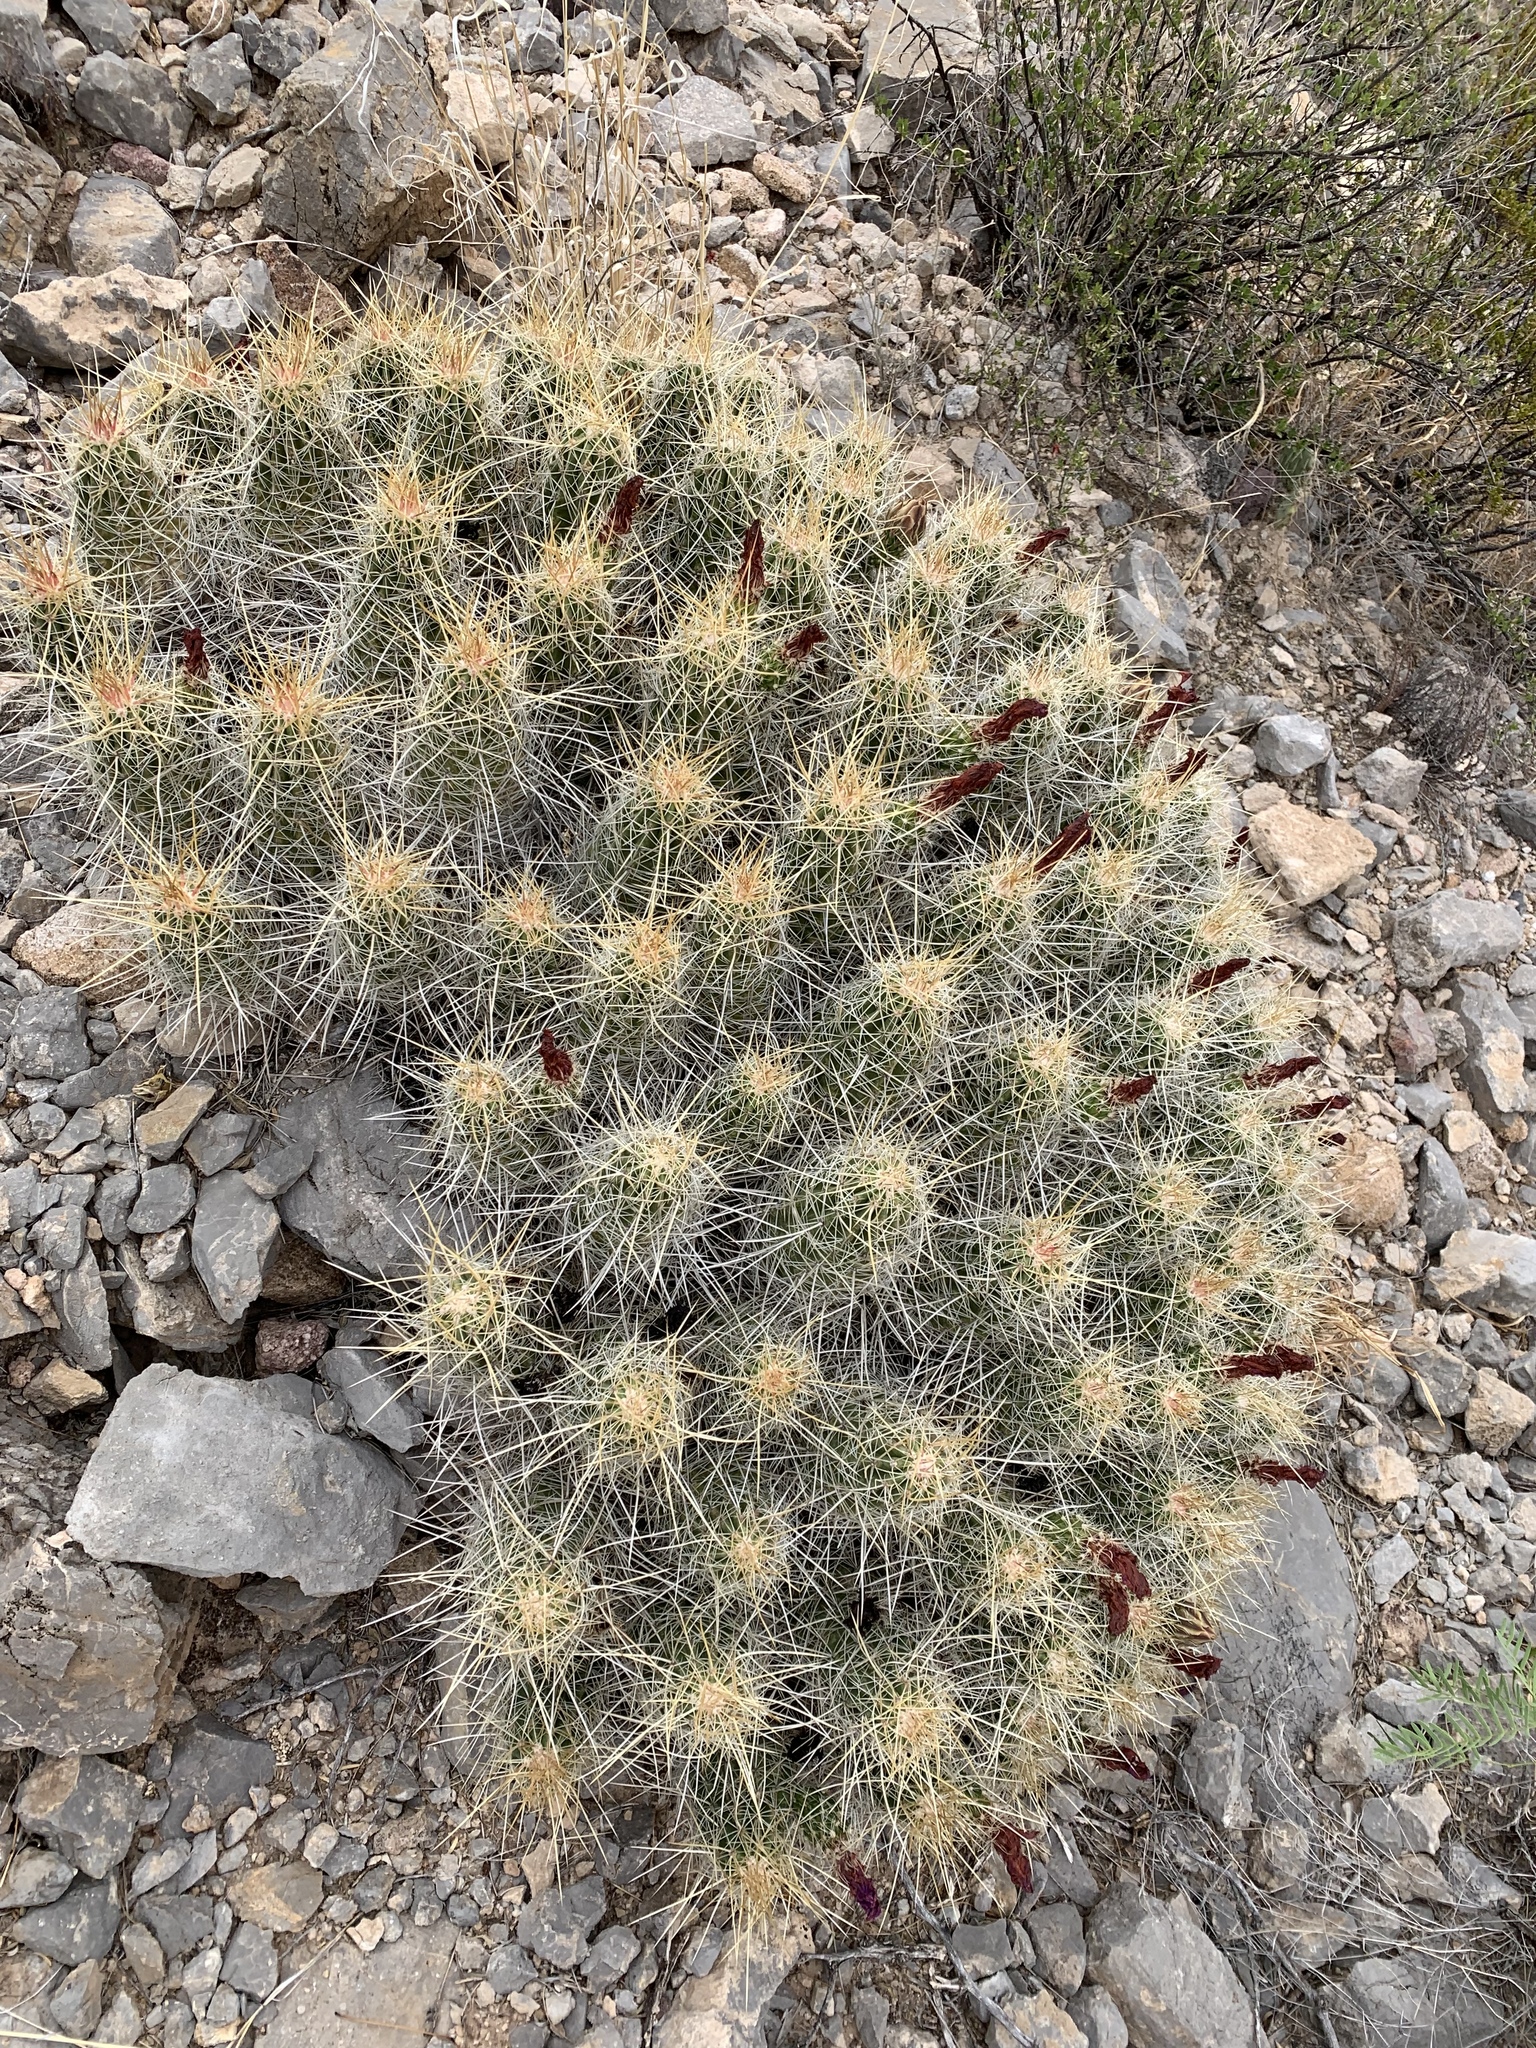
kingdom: Plantae
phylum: Tracheophyta
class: Magnoliopsida
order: Caryophyllales
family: Cactaceae
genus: Echinocereus
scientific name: Echinocereus stramineus
